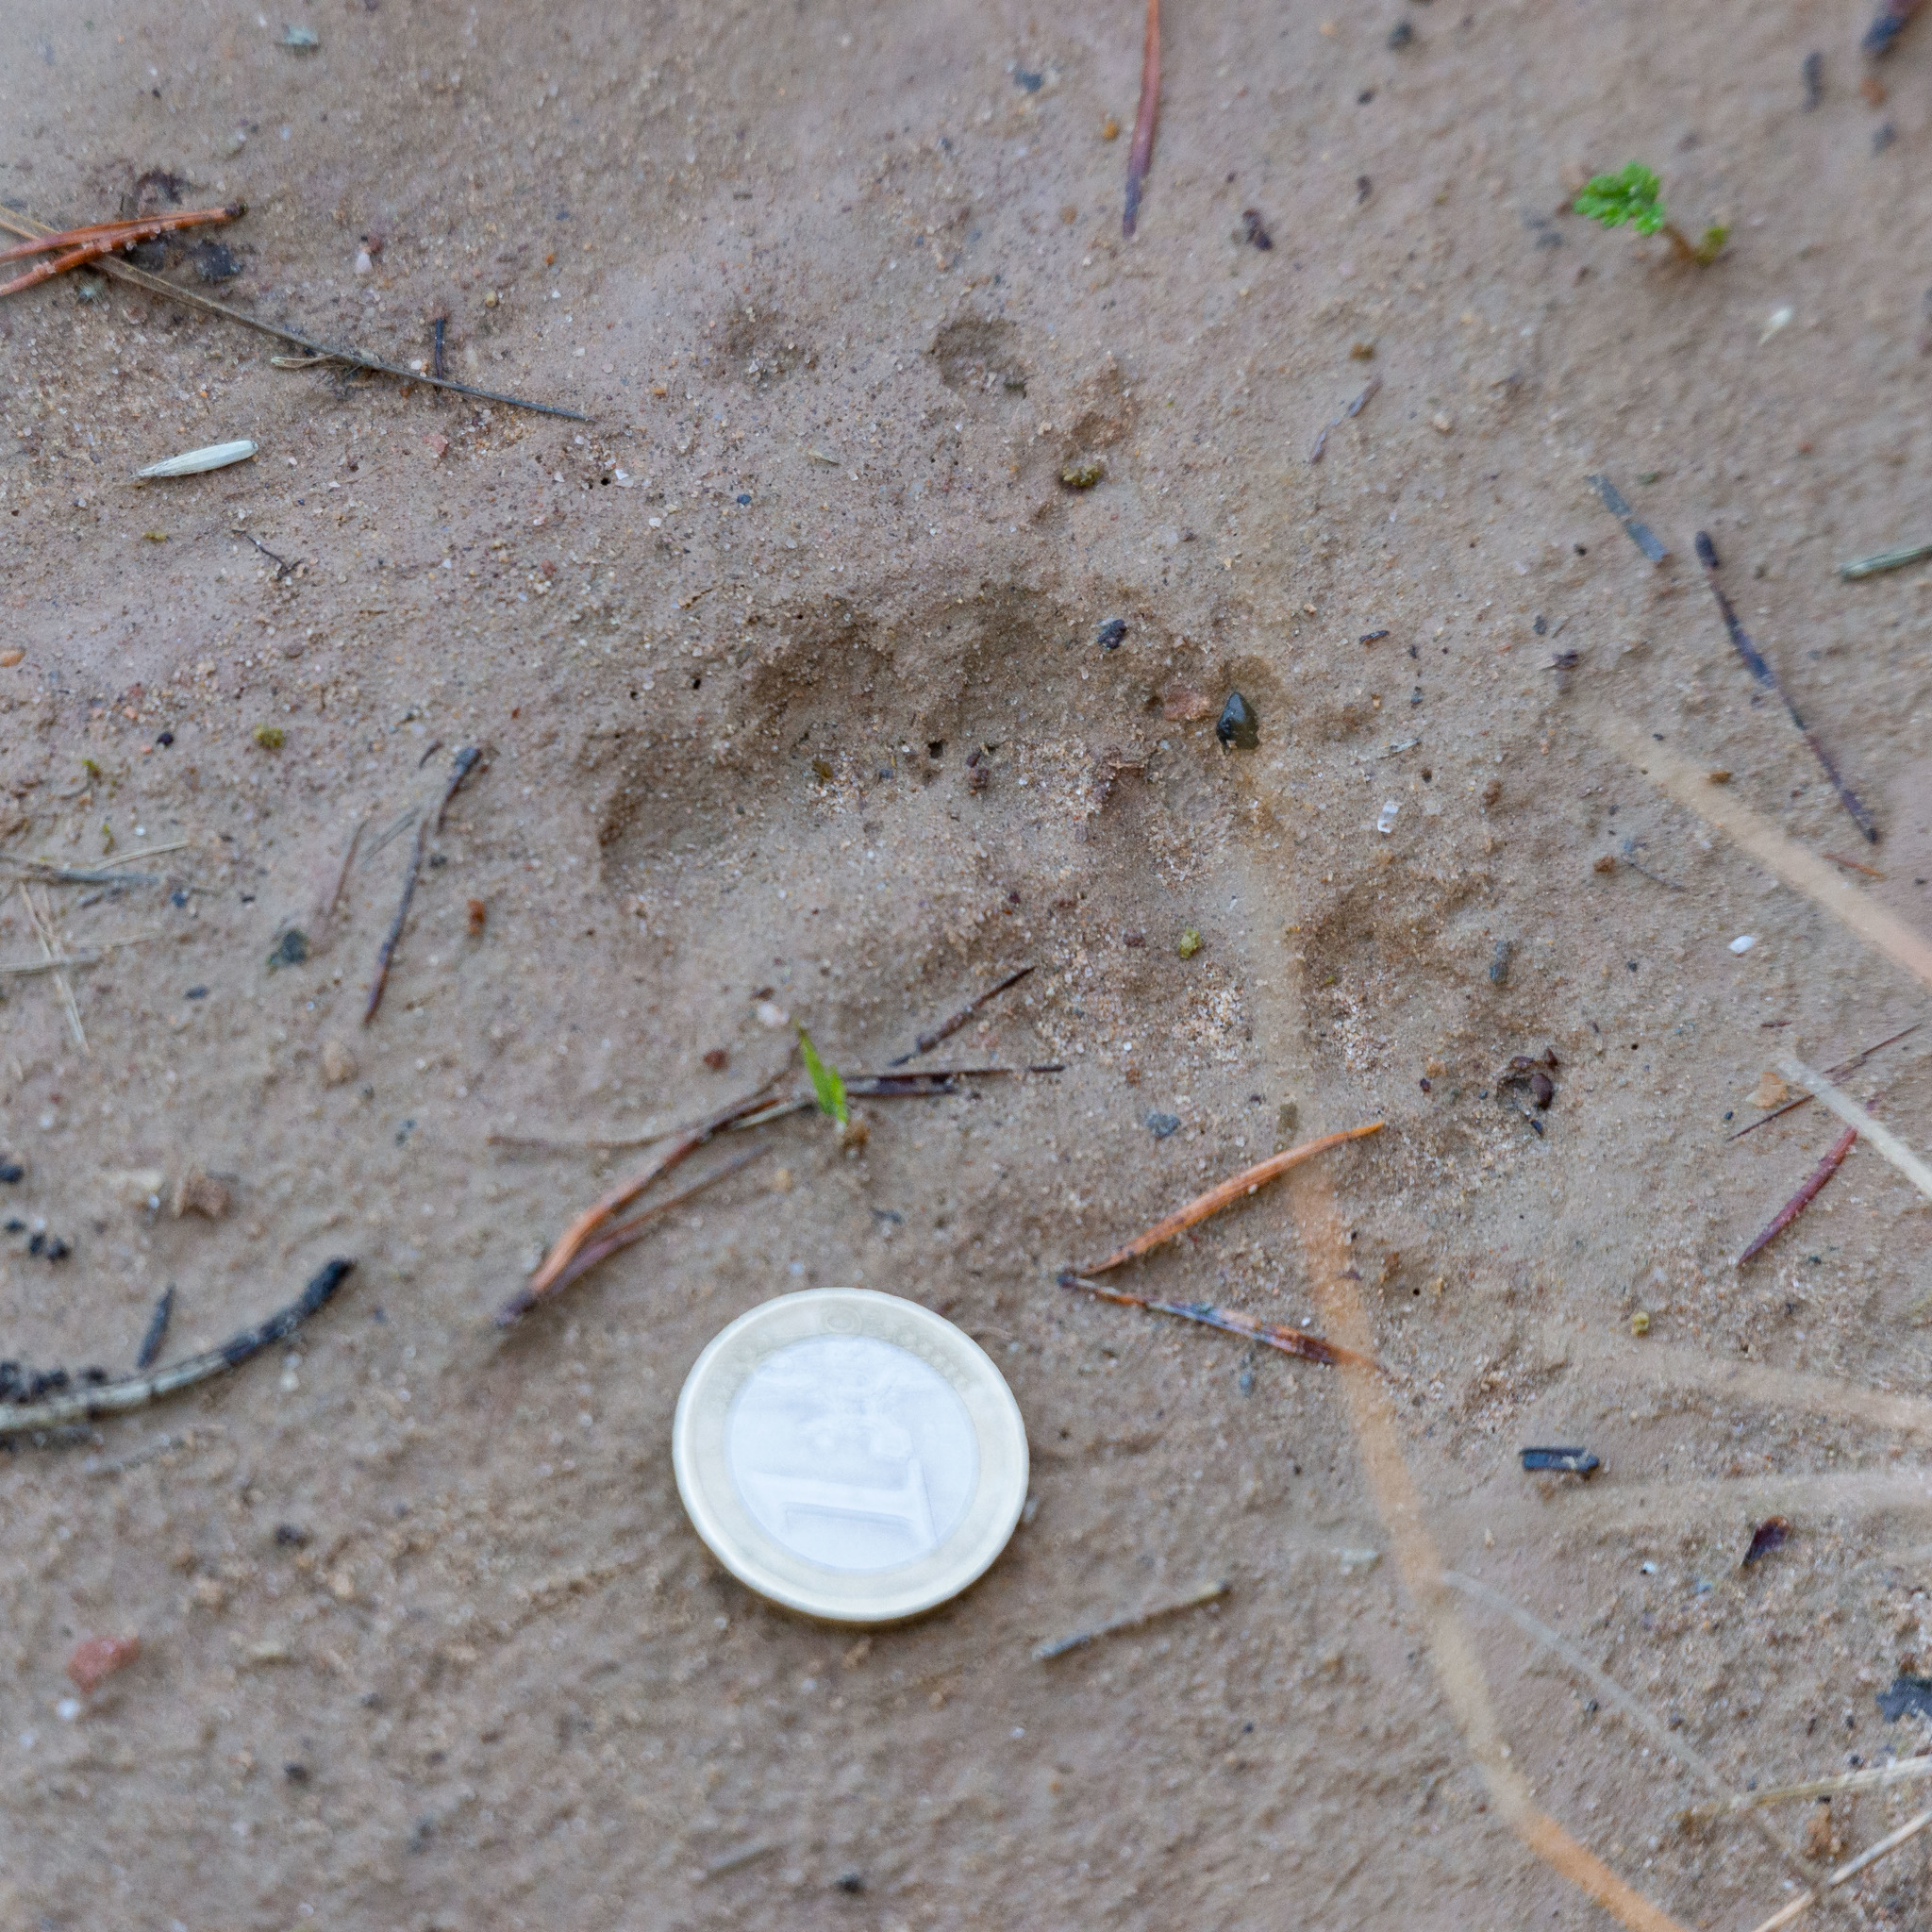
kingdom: Animalia
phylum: Chordata
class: Mammalia
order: Carnivora
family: Mustelidae
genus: Meles
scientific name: Meles meles
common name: Eurasian badger
